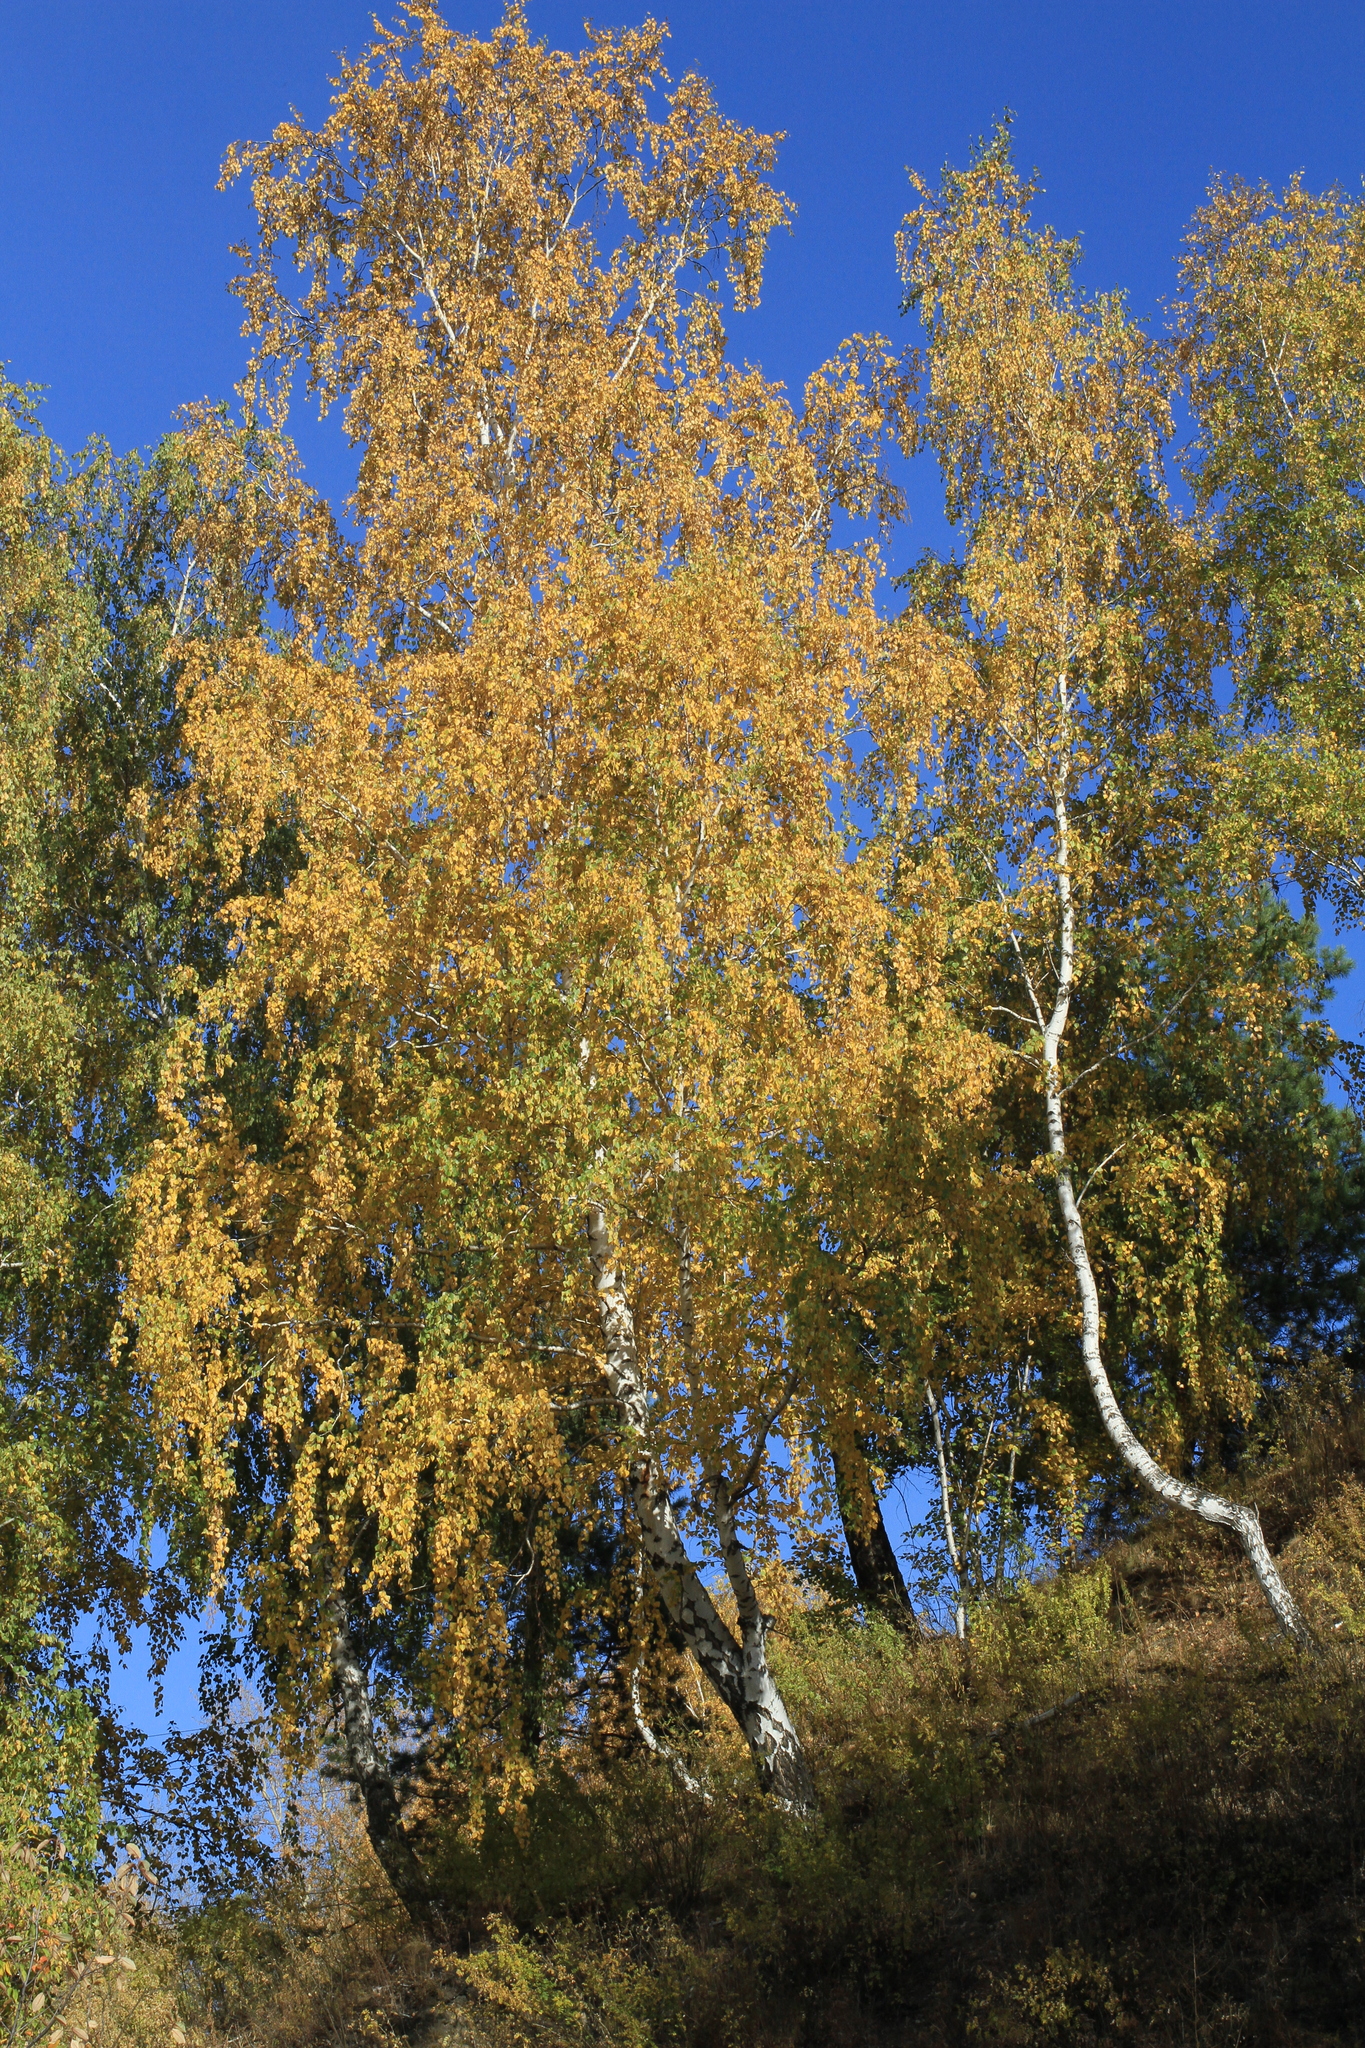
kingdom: Plantae
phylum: Tracheophyta
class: Magnoliopsida
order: Fagales
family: Betulaceae
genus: Betula
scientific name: Betula pendula
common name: Silver birch
